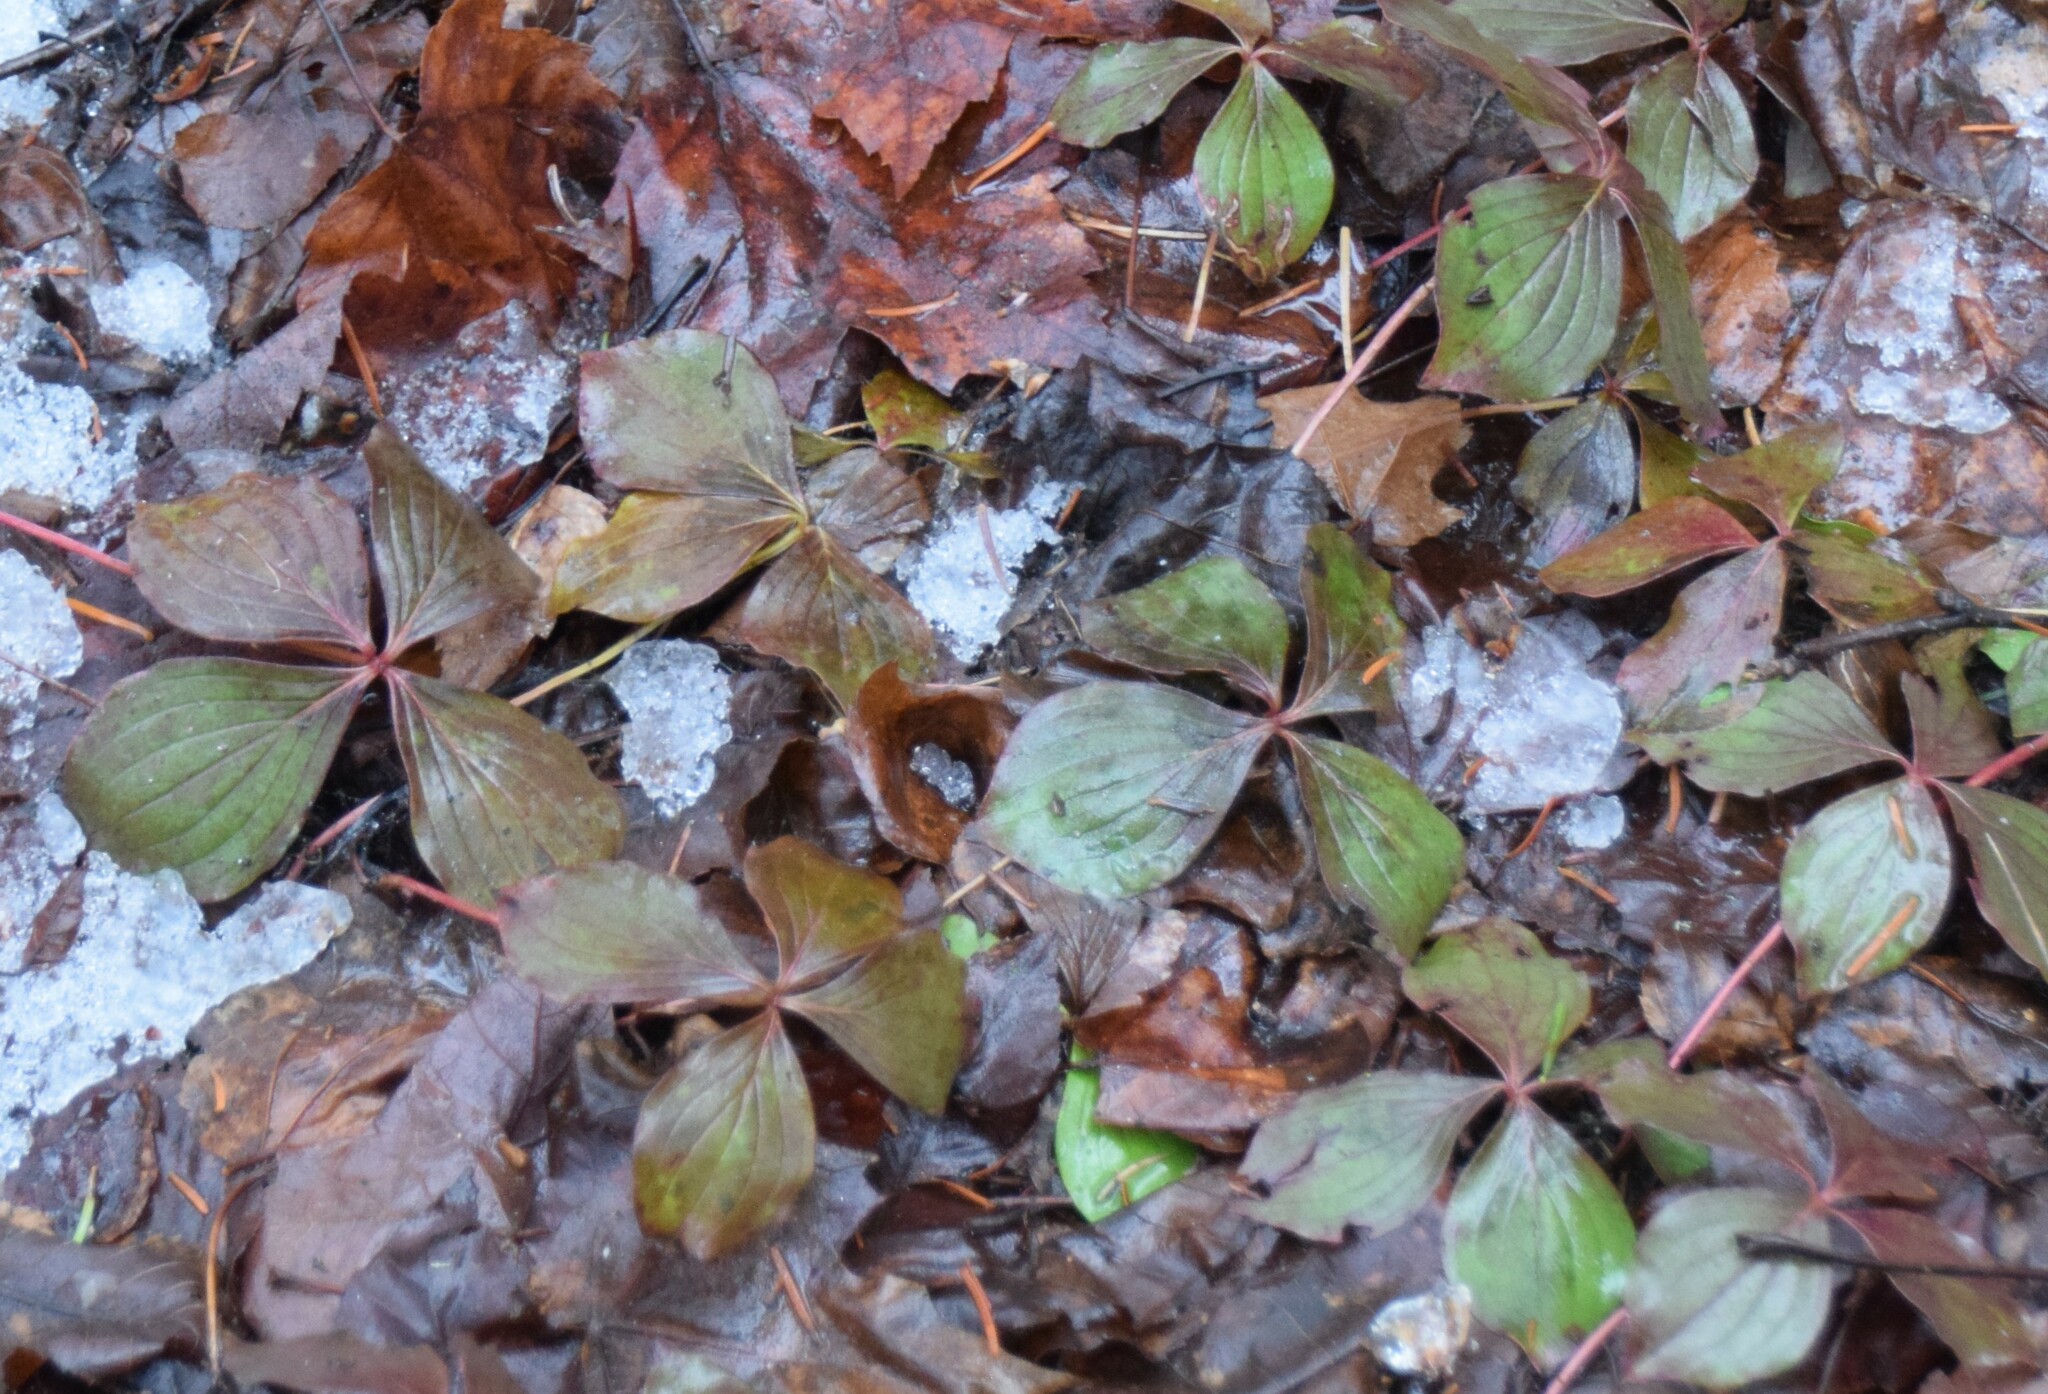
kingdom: Plantae
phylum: Tracheophyta
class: Magnoliopsida
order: Cornales
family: Cornaceae
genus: Cornus
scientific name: Cornus canadensis
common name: Creeping dogwood
